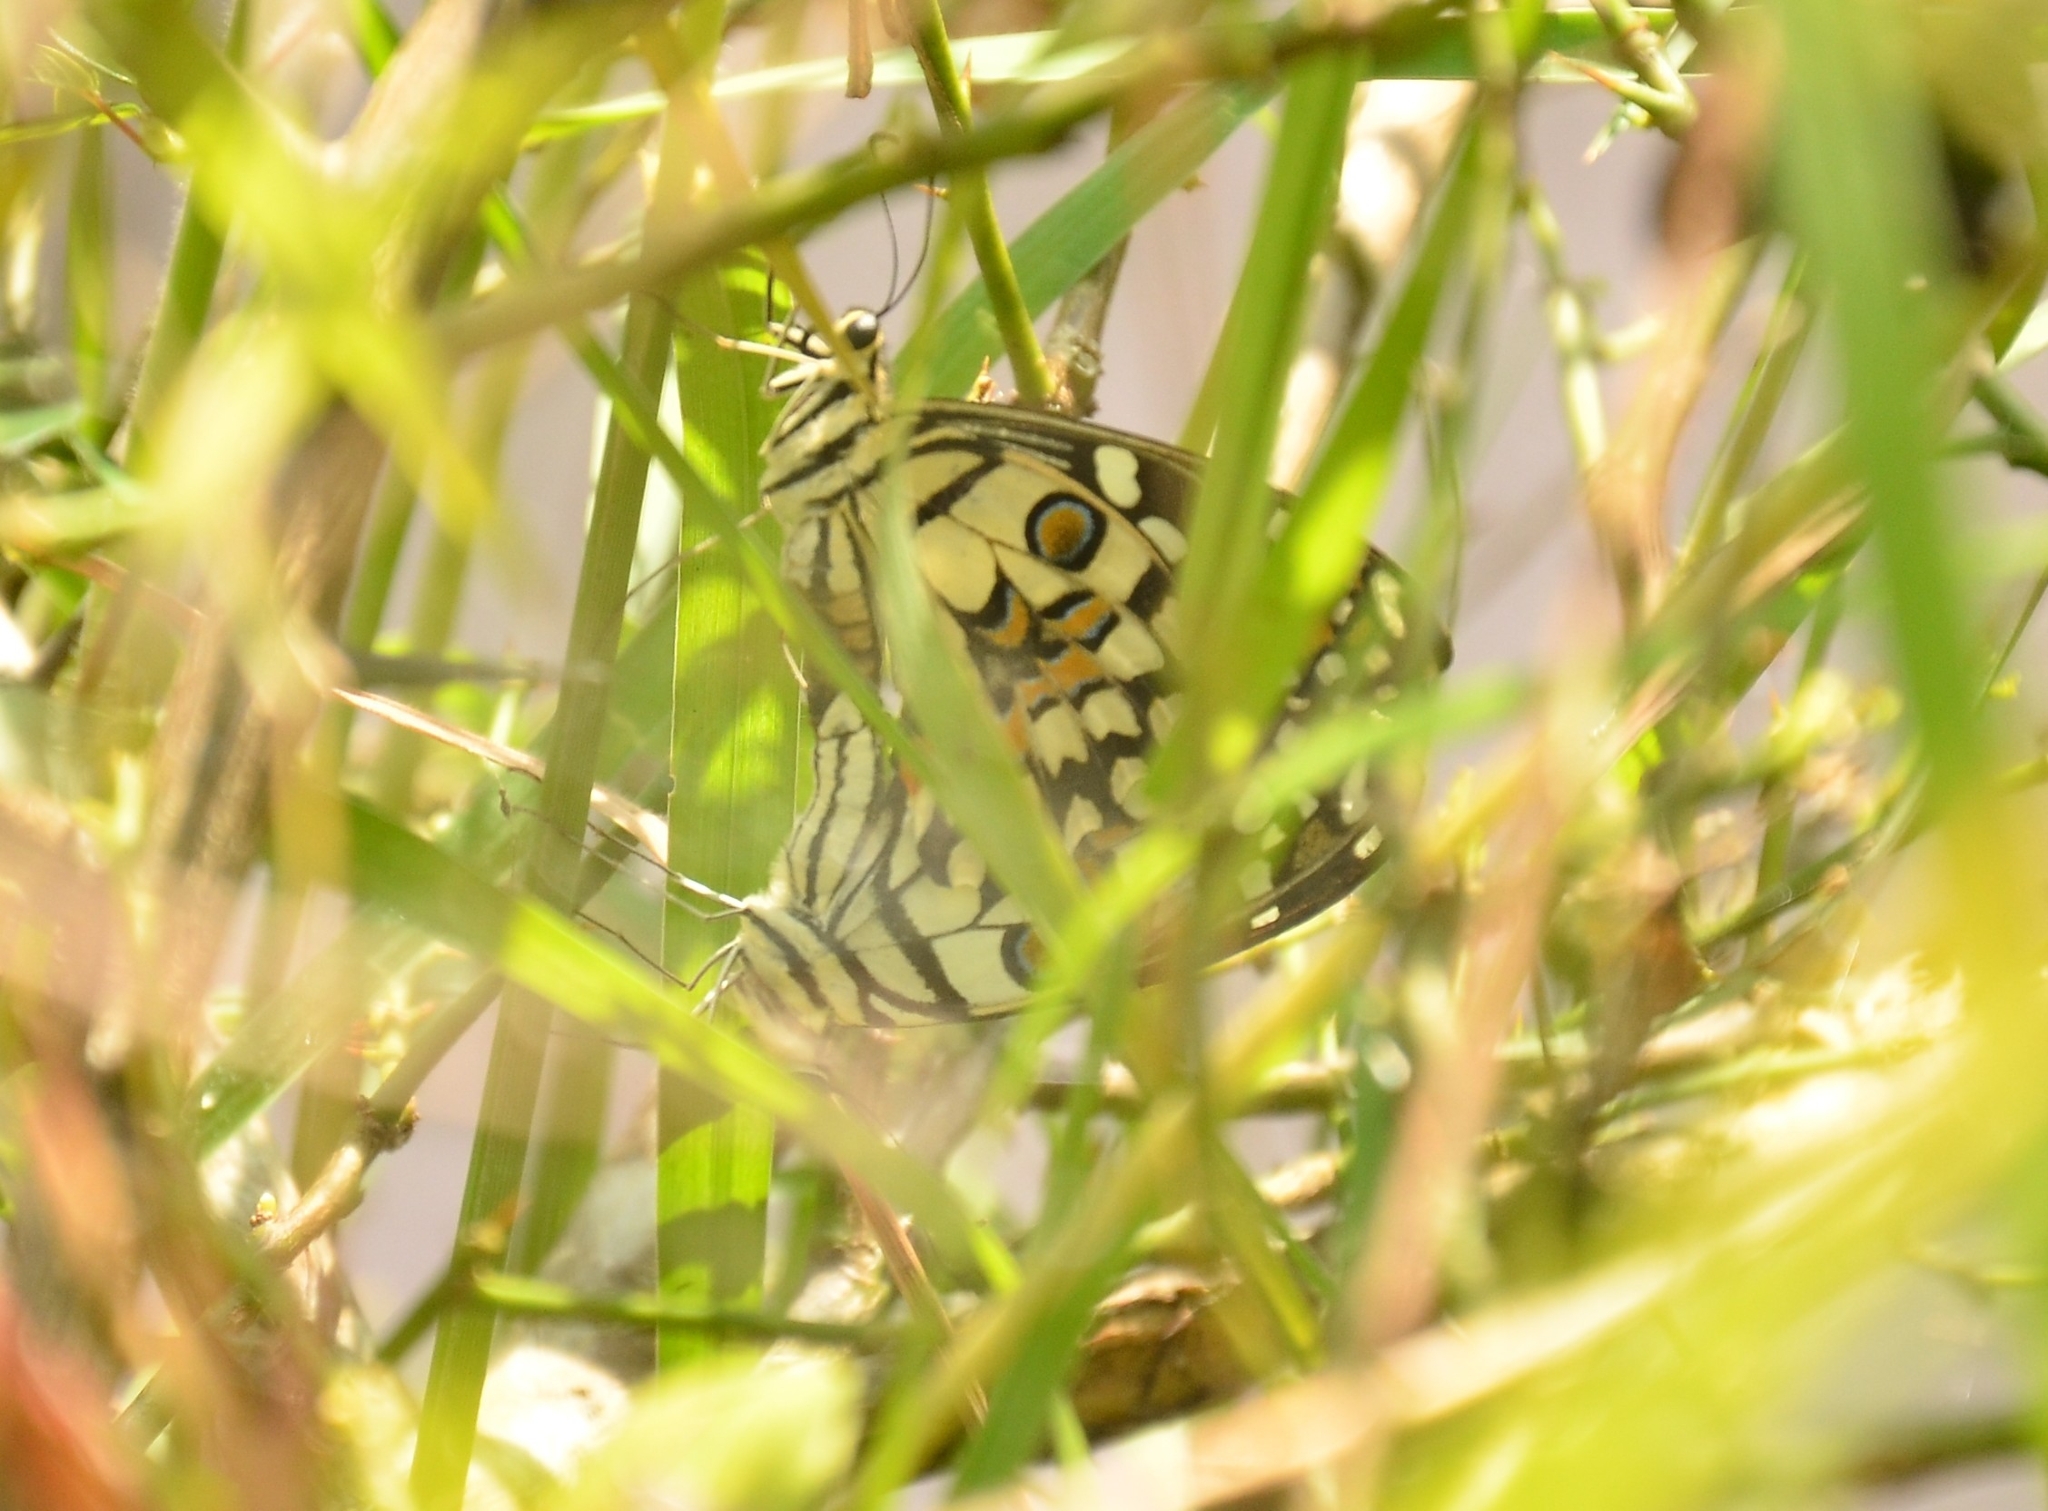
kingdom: Animalia
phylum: Arthropoda
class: Insecta
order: Lepidoptera
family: Papilionidae
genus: Papilio
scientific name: Papilio demoleus
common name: Lime butterfly
